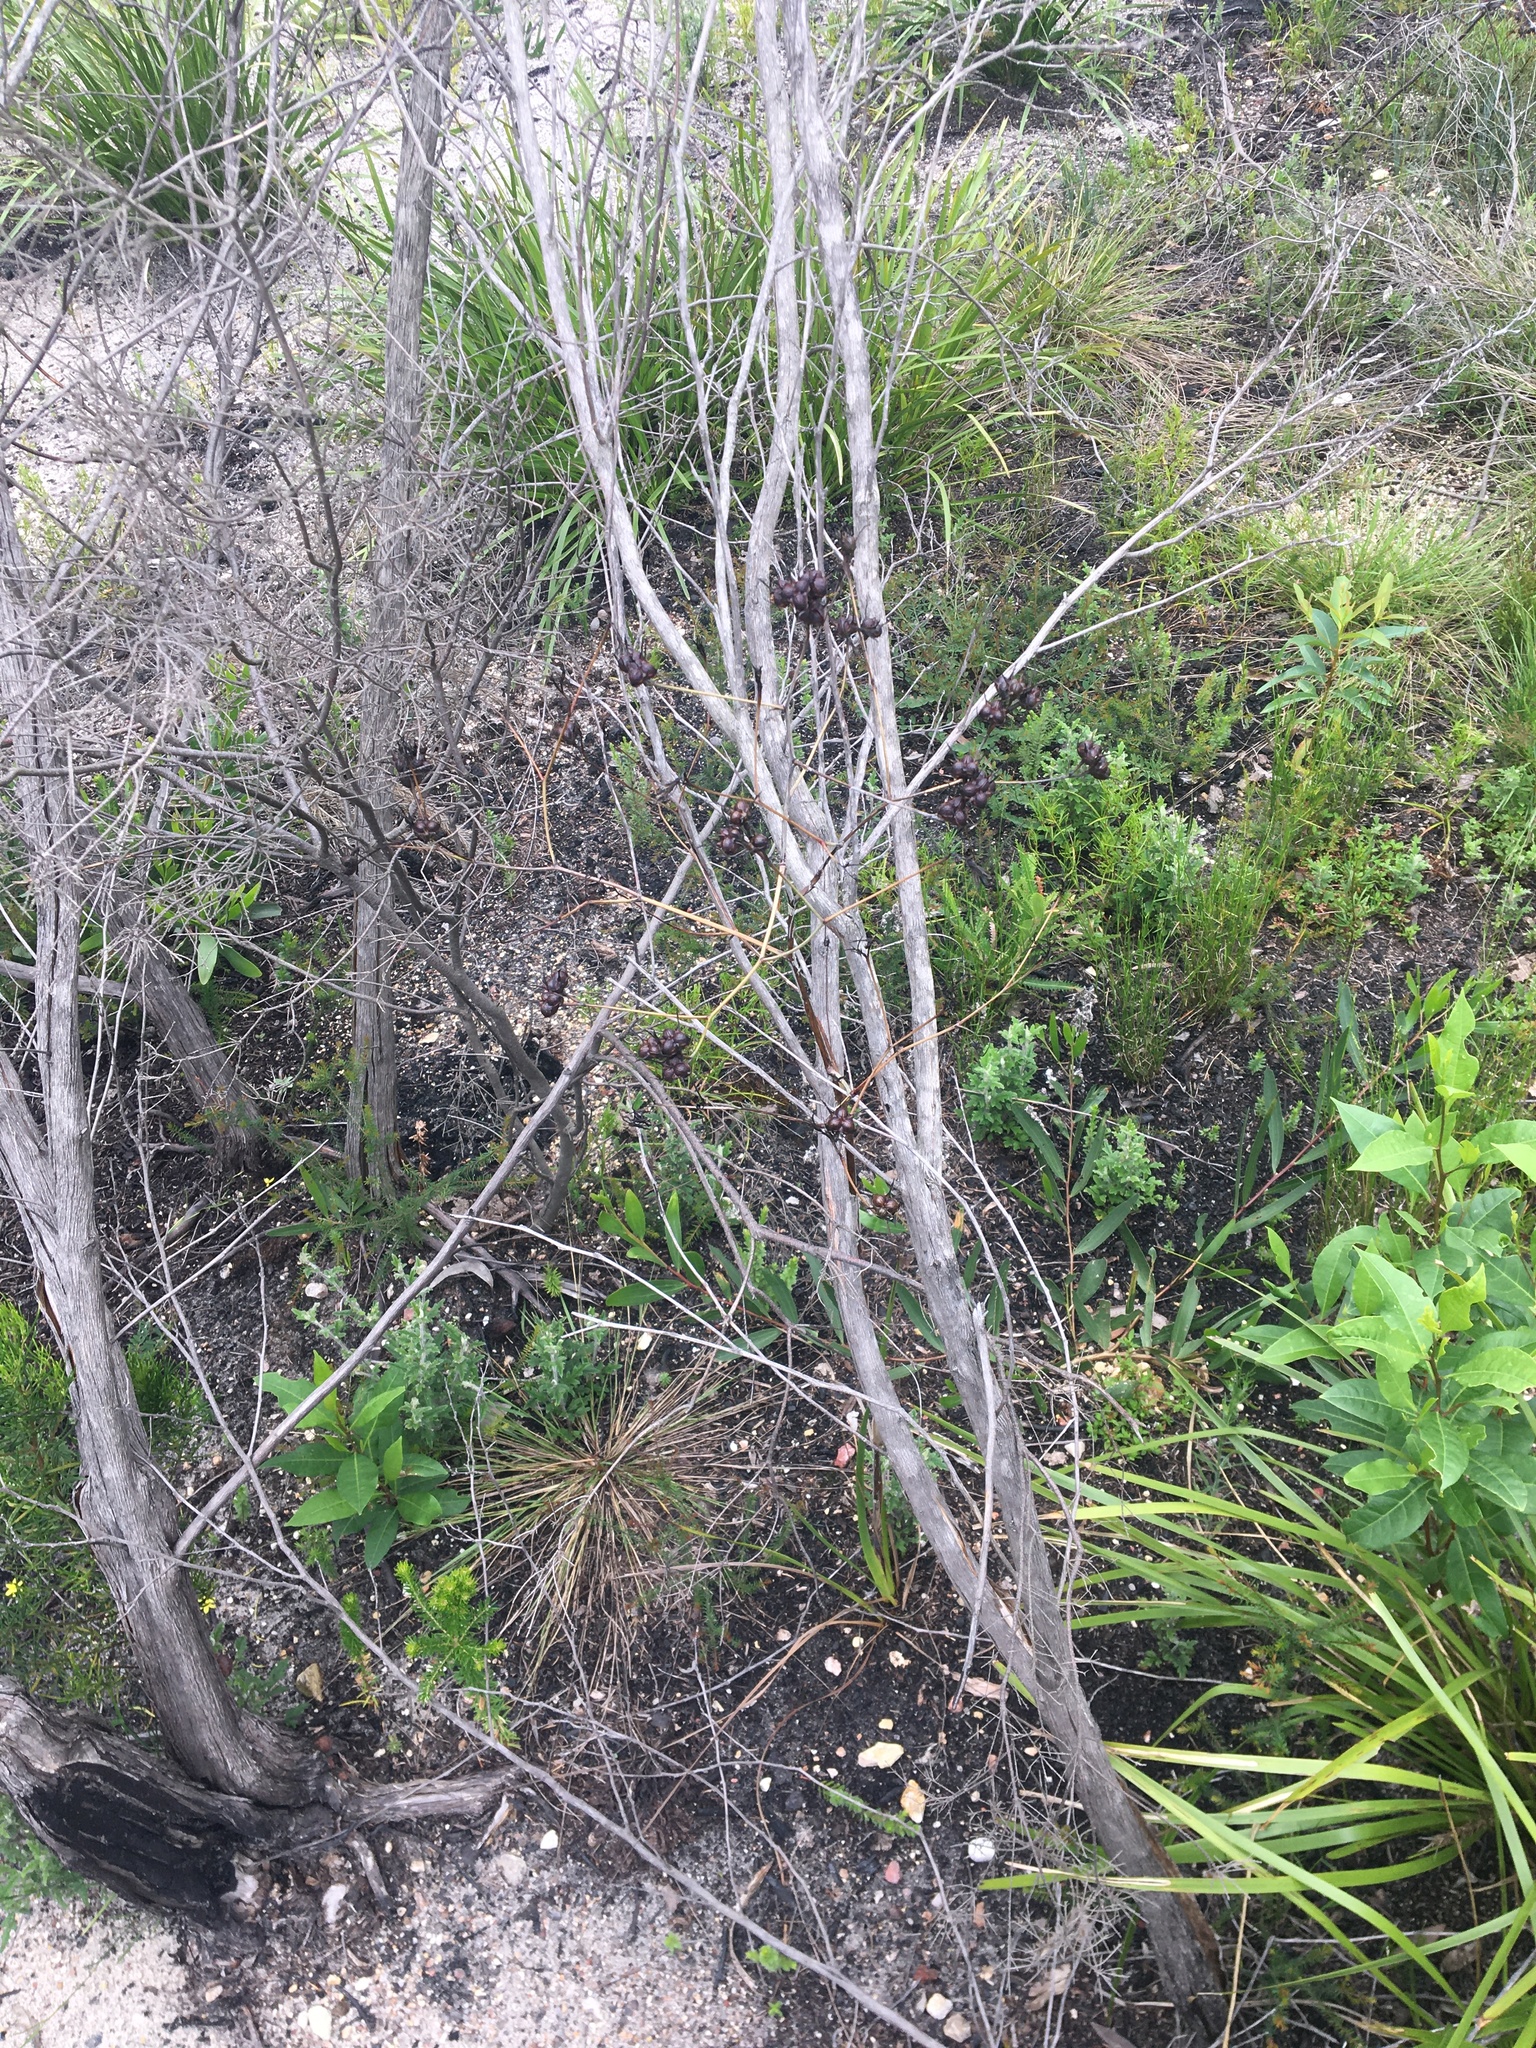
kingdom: Plantae
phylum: Tracheophyta
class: Liliopsida
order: Commelinales
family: Haemodoraceae
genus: Haemodorum
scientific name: Haemodorum planifolium
